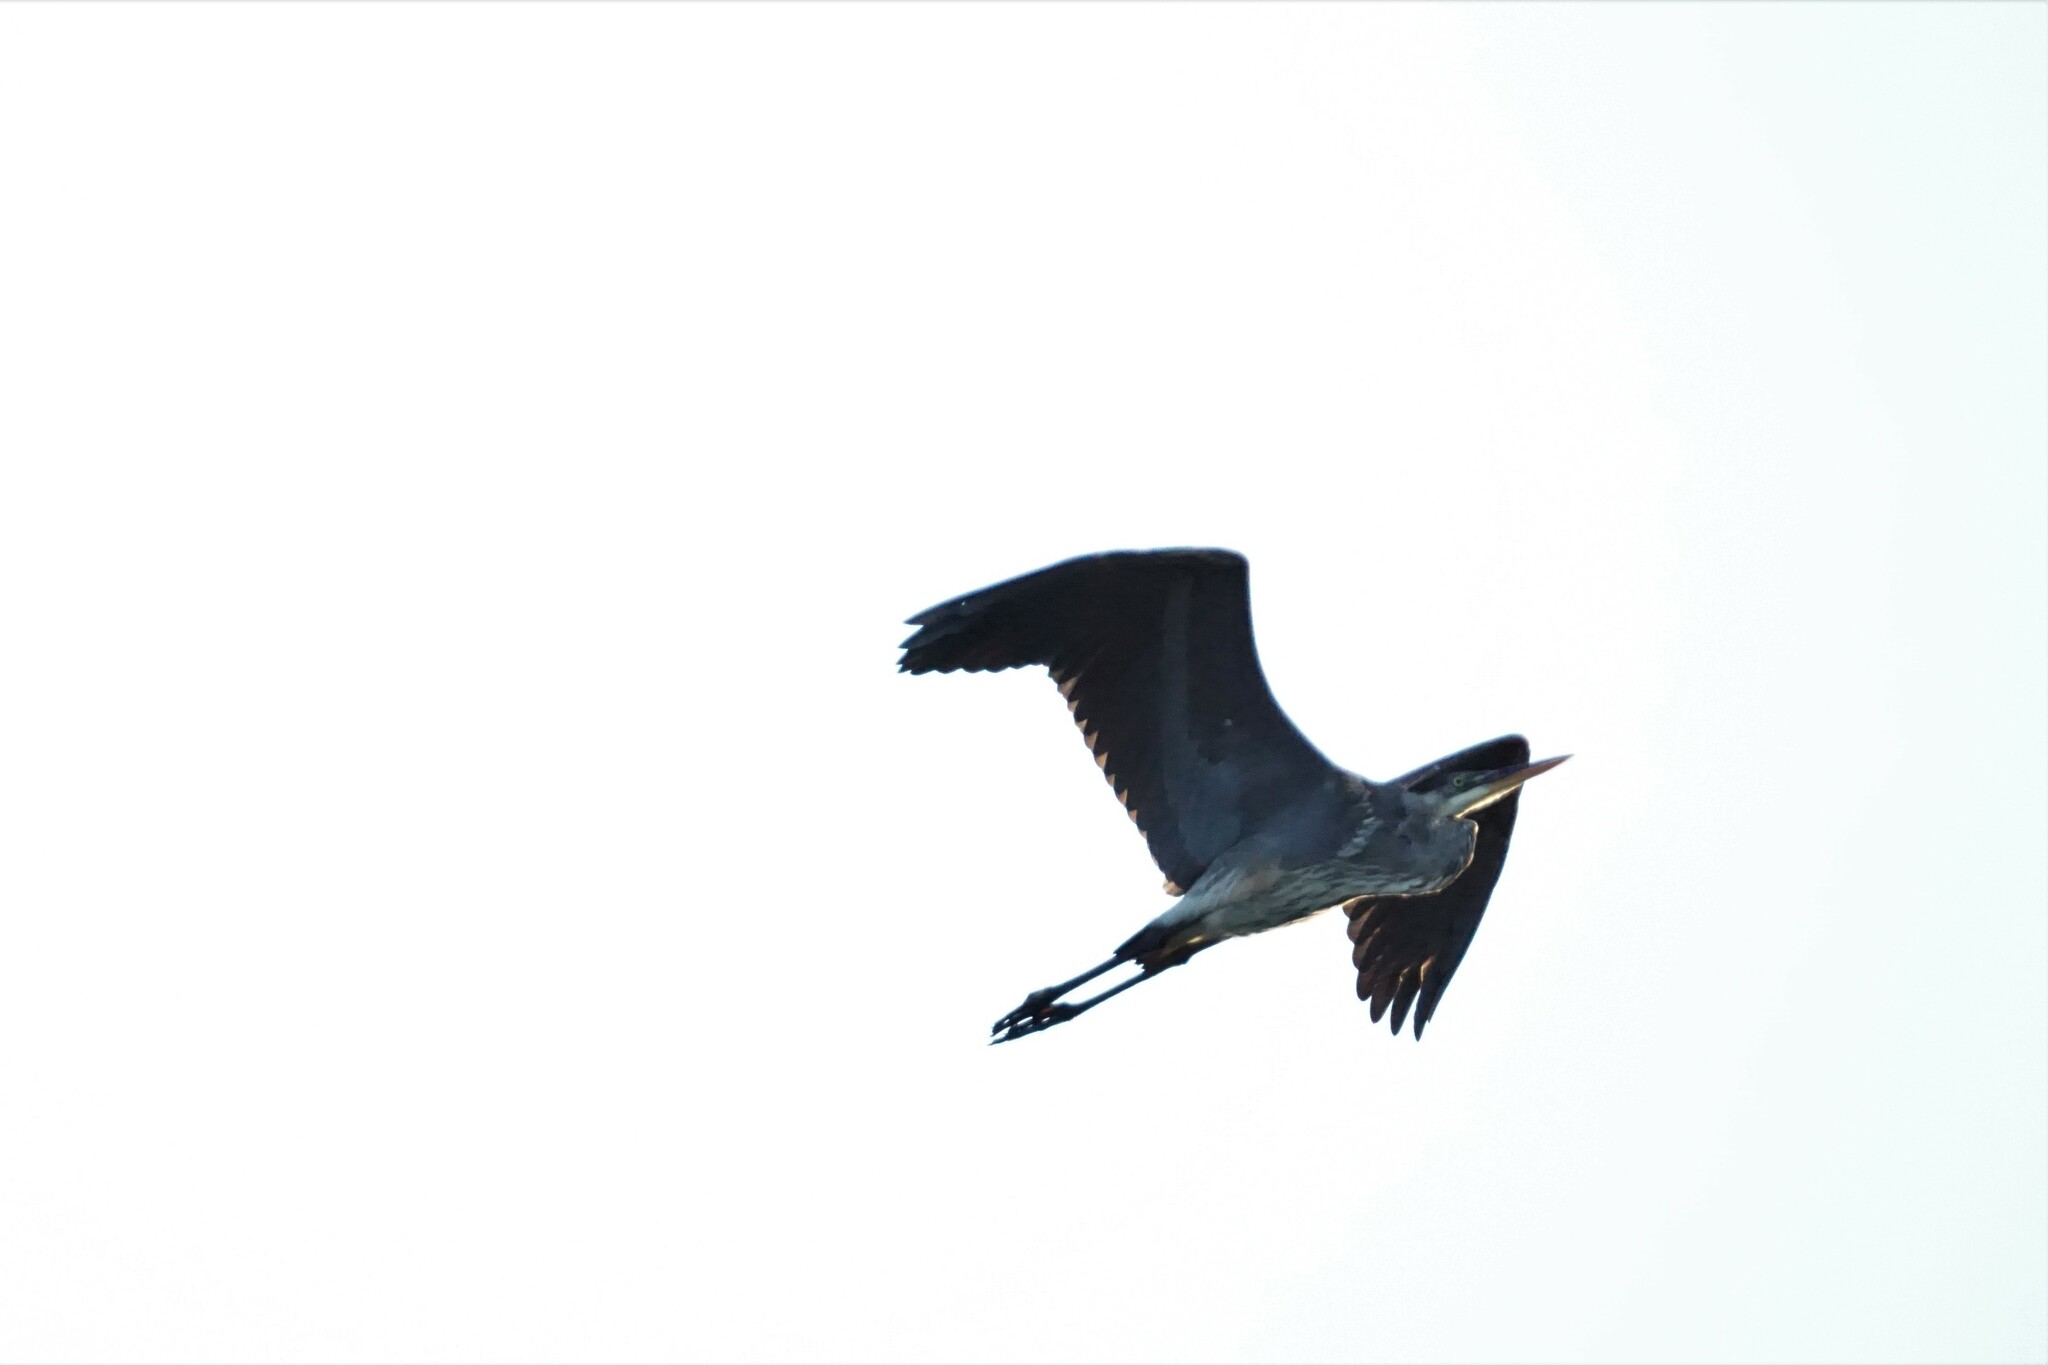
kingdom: Animalia
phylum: Chordata
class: Aves
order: Pelecaniformes
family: Ardeidae
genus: Ardea
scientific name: Ardea herodias
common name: Great blue heron
